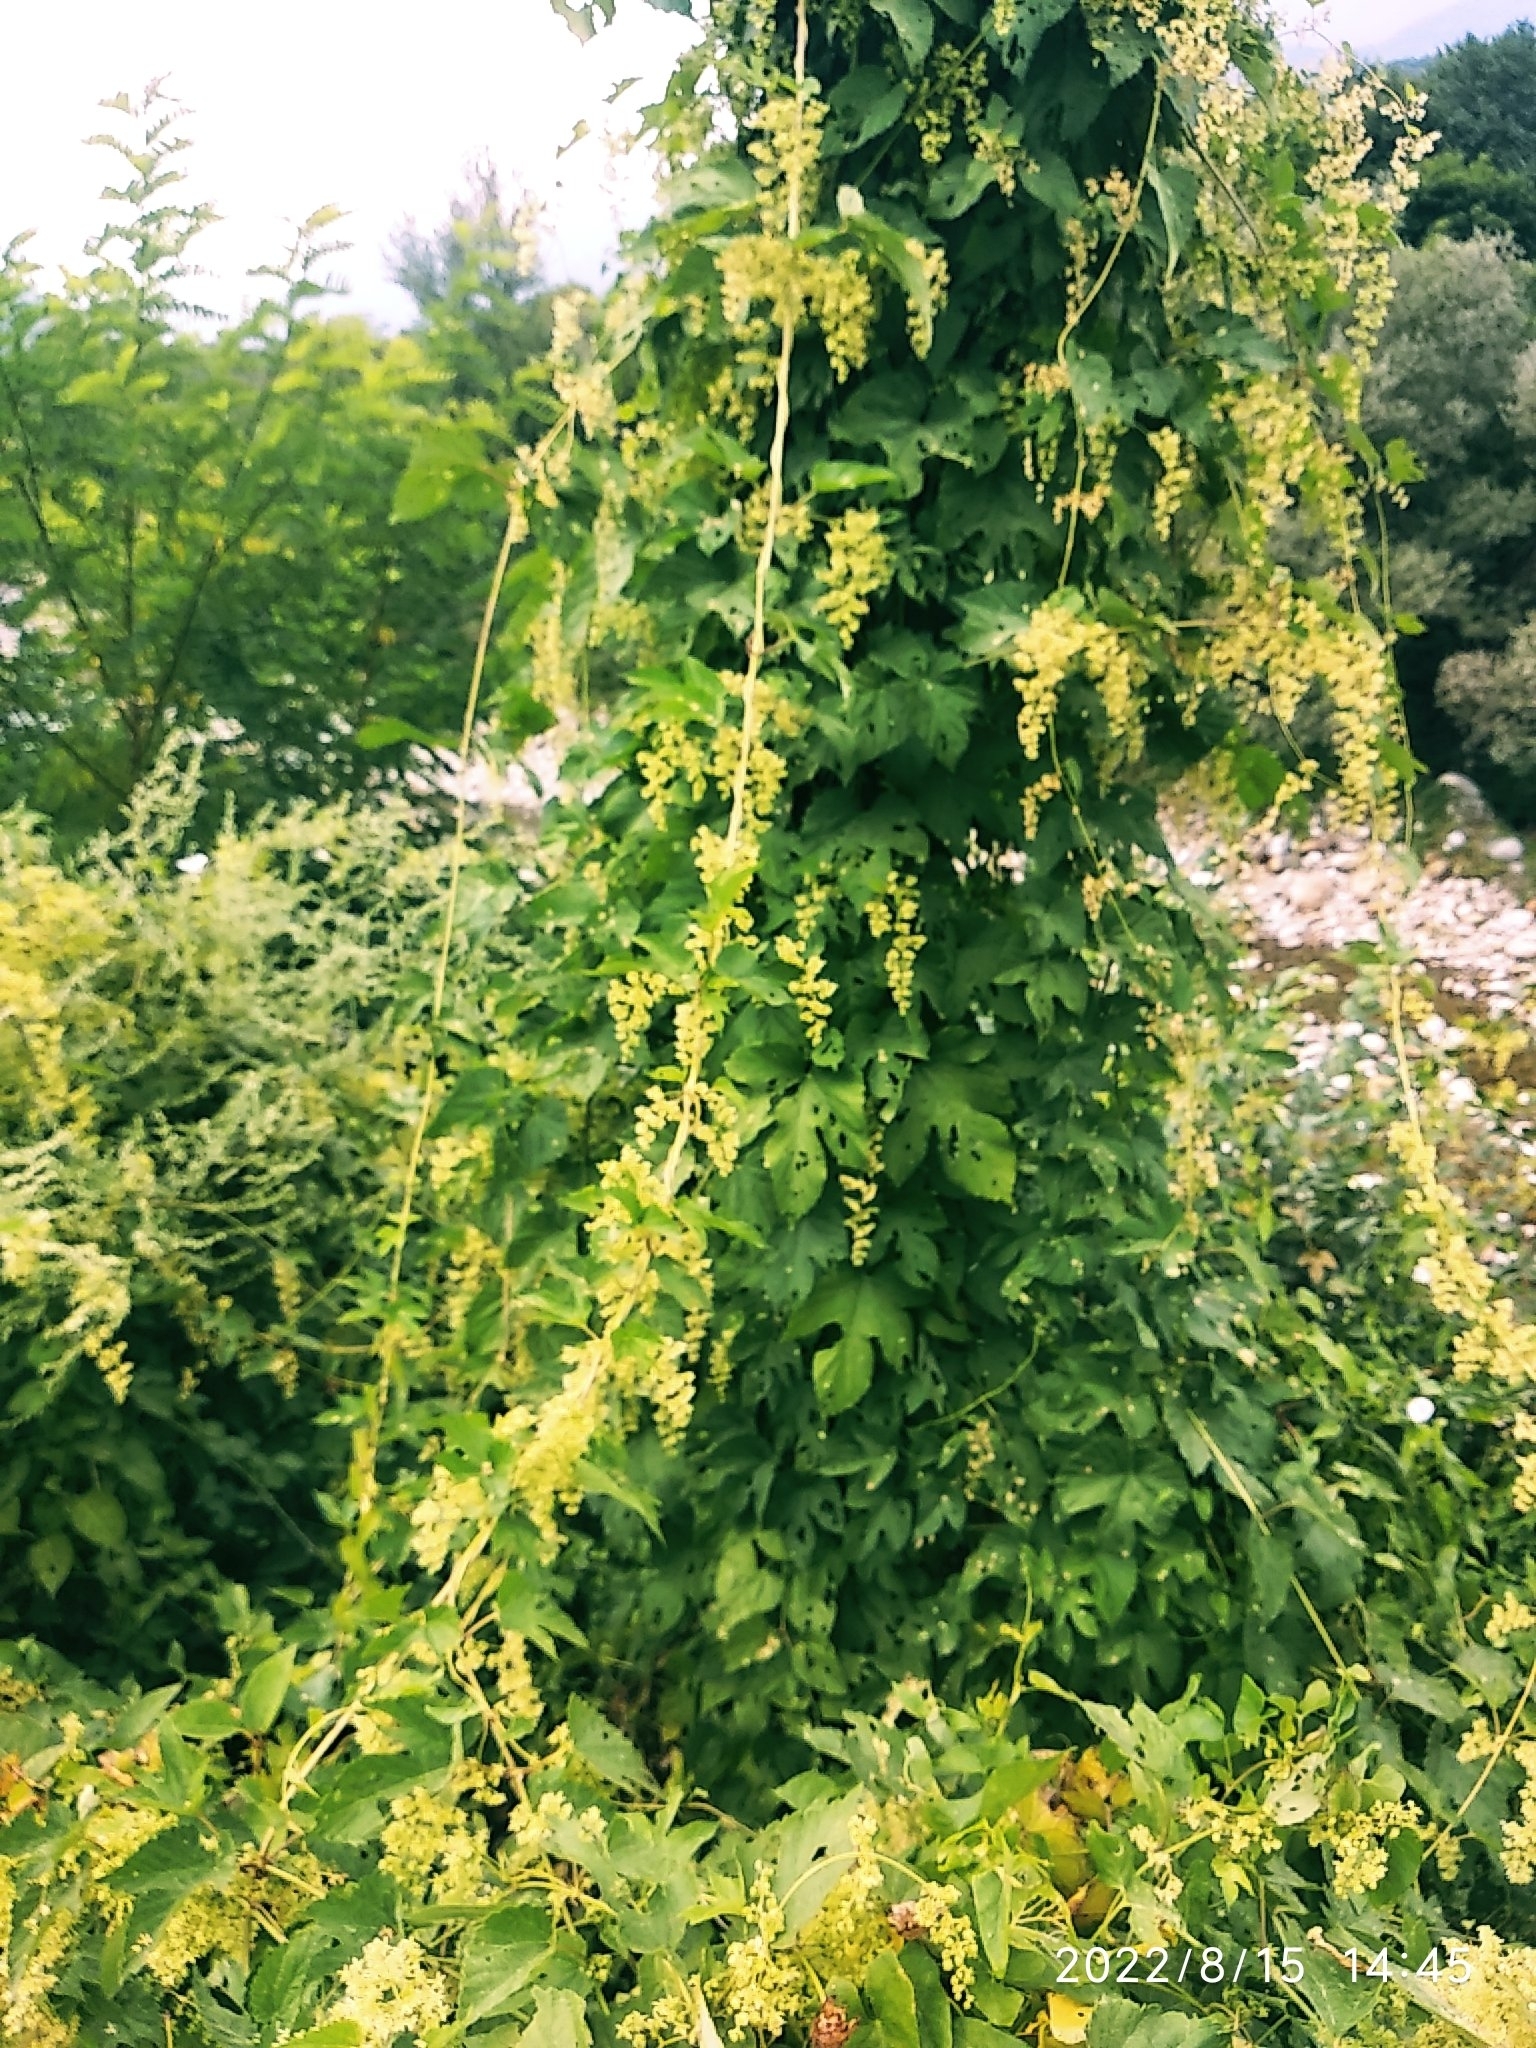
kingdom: Plantae
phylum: Tracheophyta
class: Magnoliopsida
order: Rosales
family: Cannabaceae
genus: Humulus
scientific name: Humulus lupulus
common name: Hop
